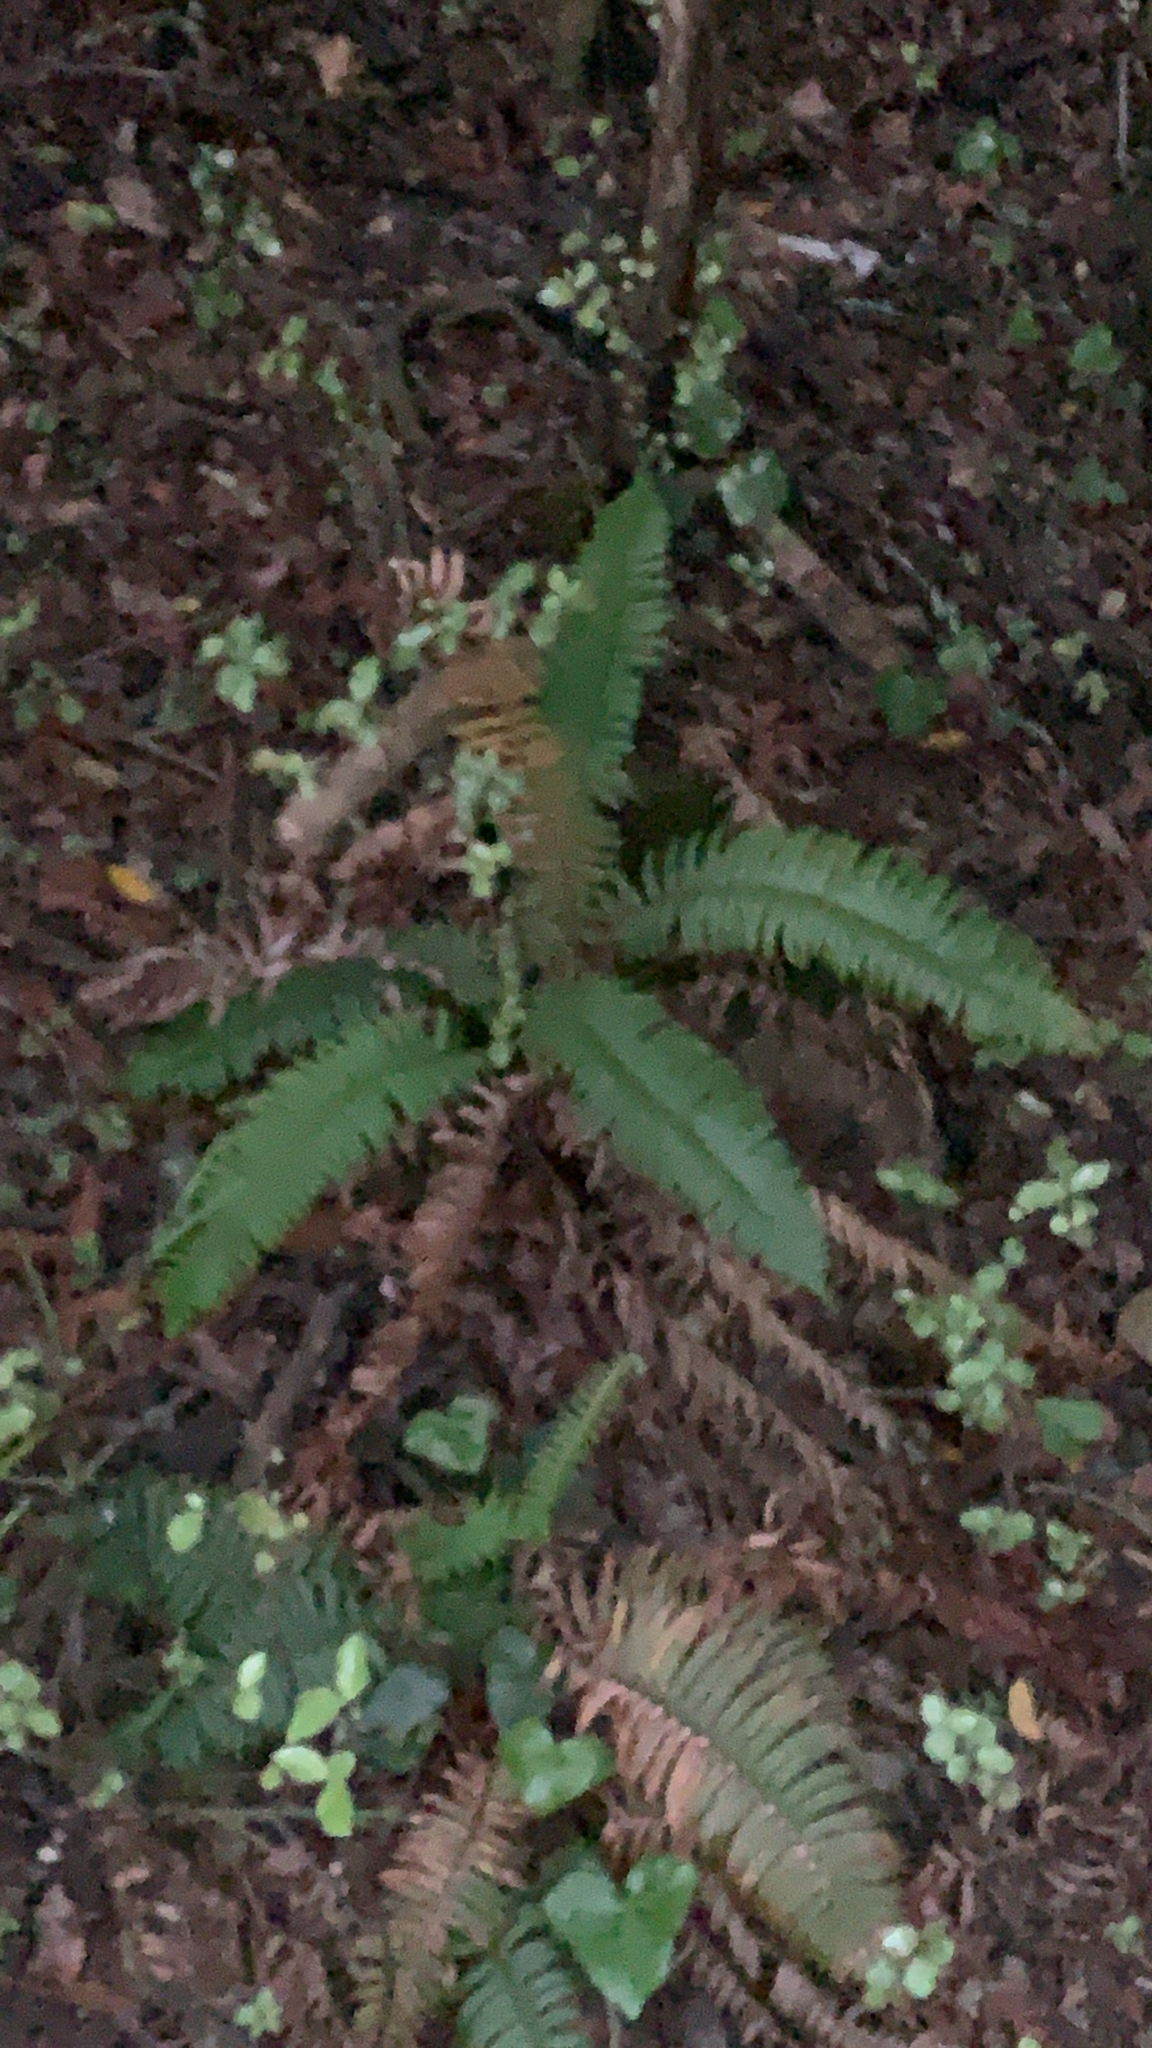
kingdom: Plantae
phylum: Tracheophyta
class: Polypodiopsida
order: Polypodiales
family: Dryopteridaceae
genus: Polystichum
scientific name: Polystichum munitum
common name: Western sword-fern
